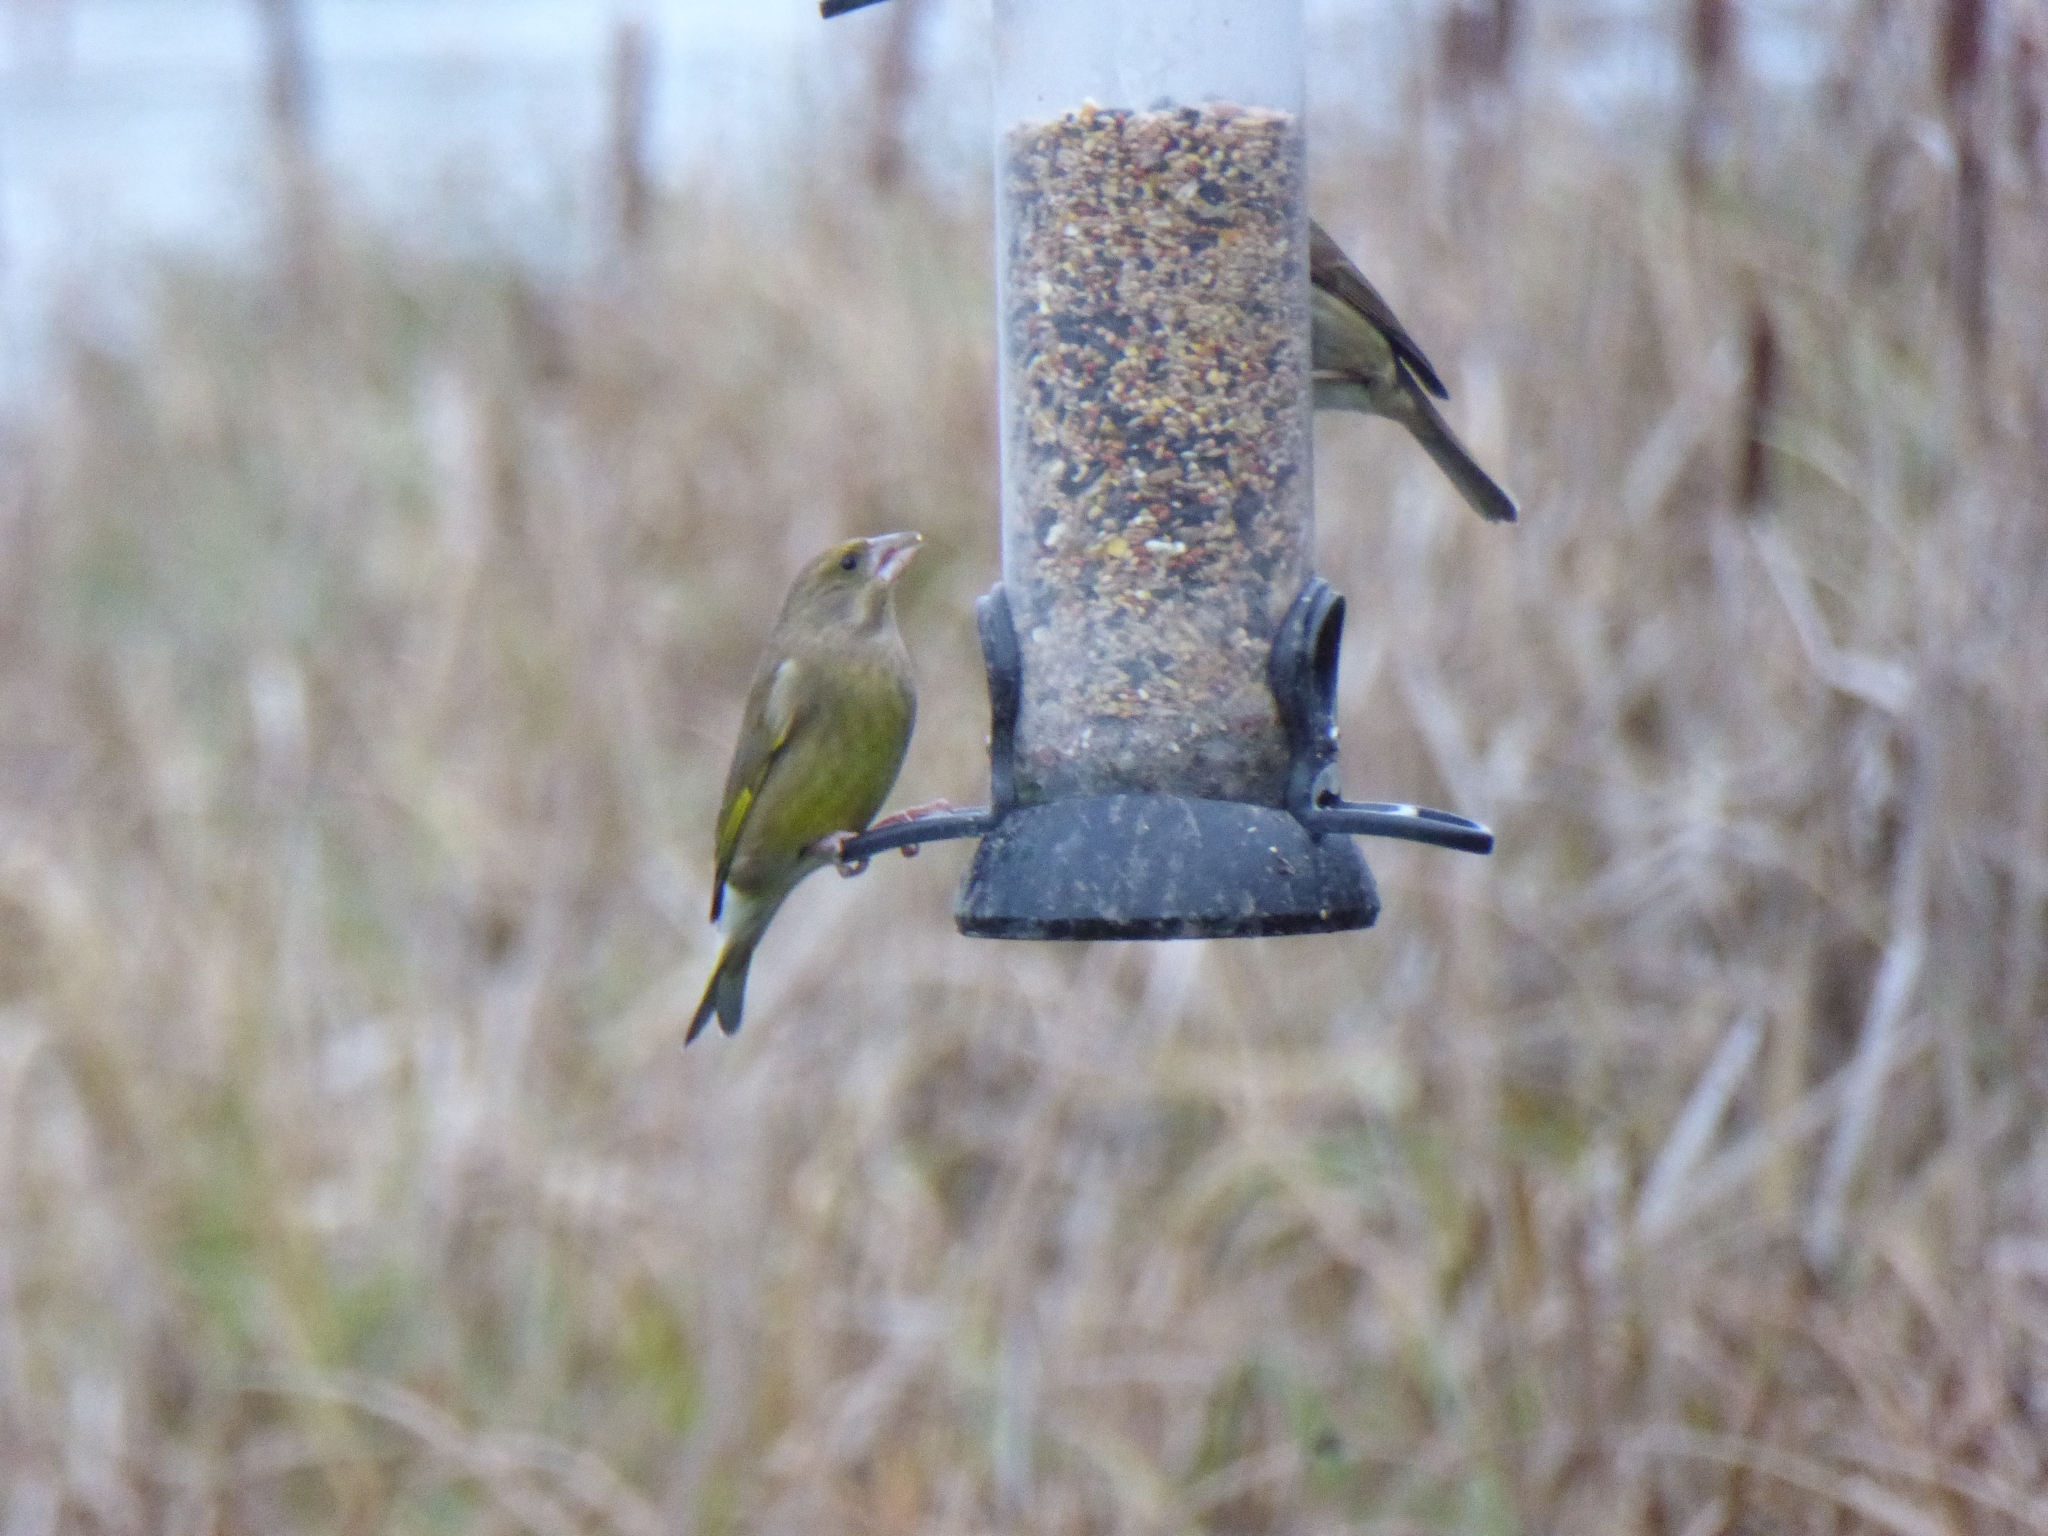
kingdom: Plantae
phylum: Tracheophyta
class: Liliopsida
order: Poales
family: Poaceae
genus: Chloris
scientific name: Chloris chloris
